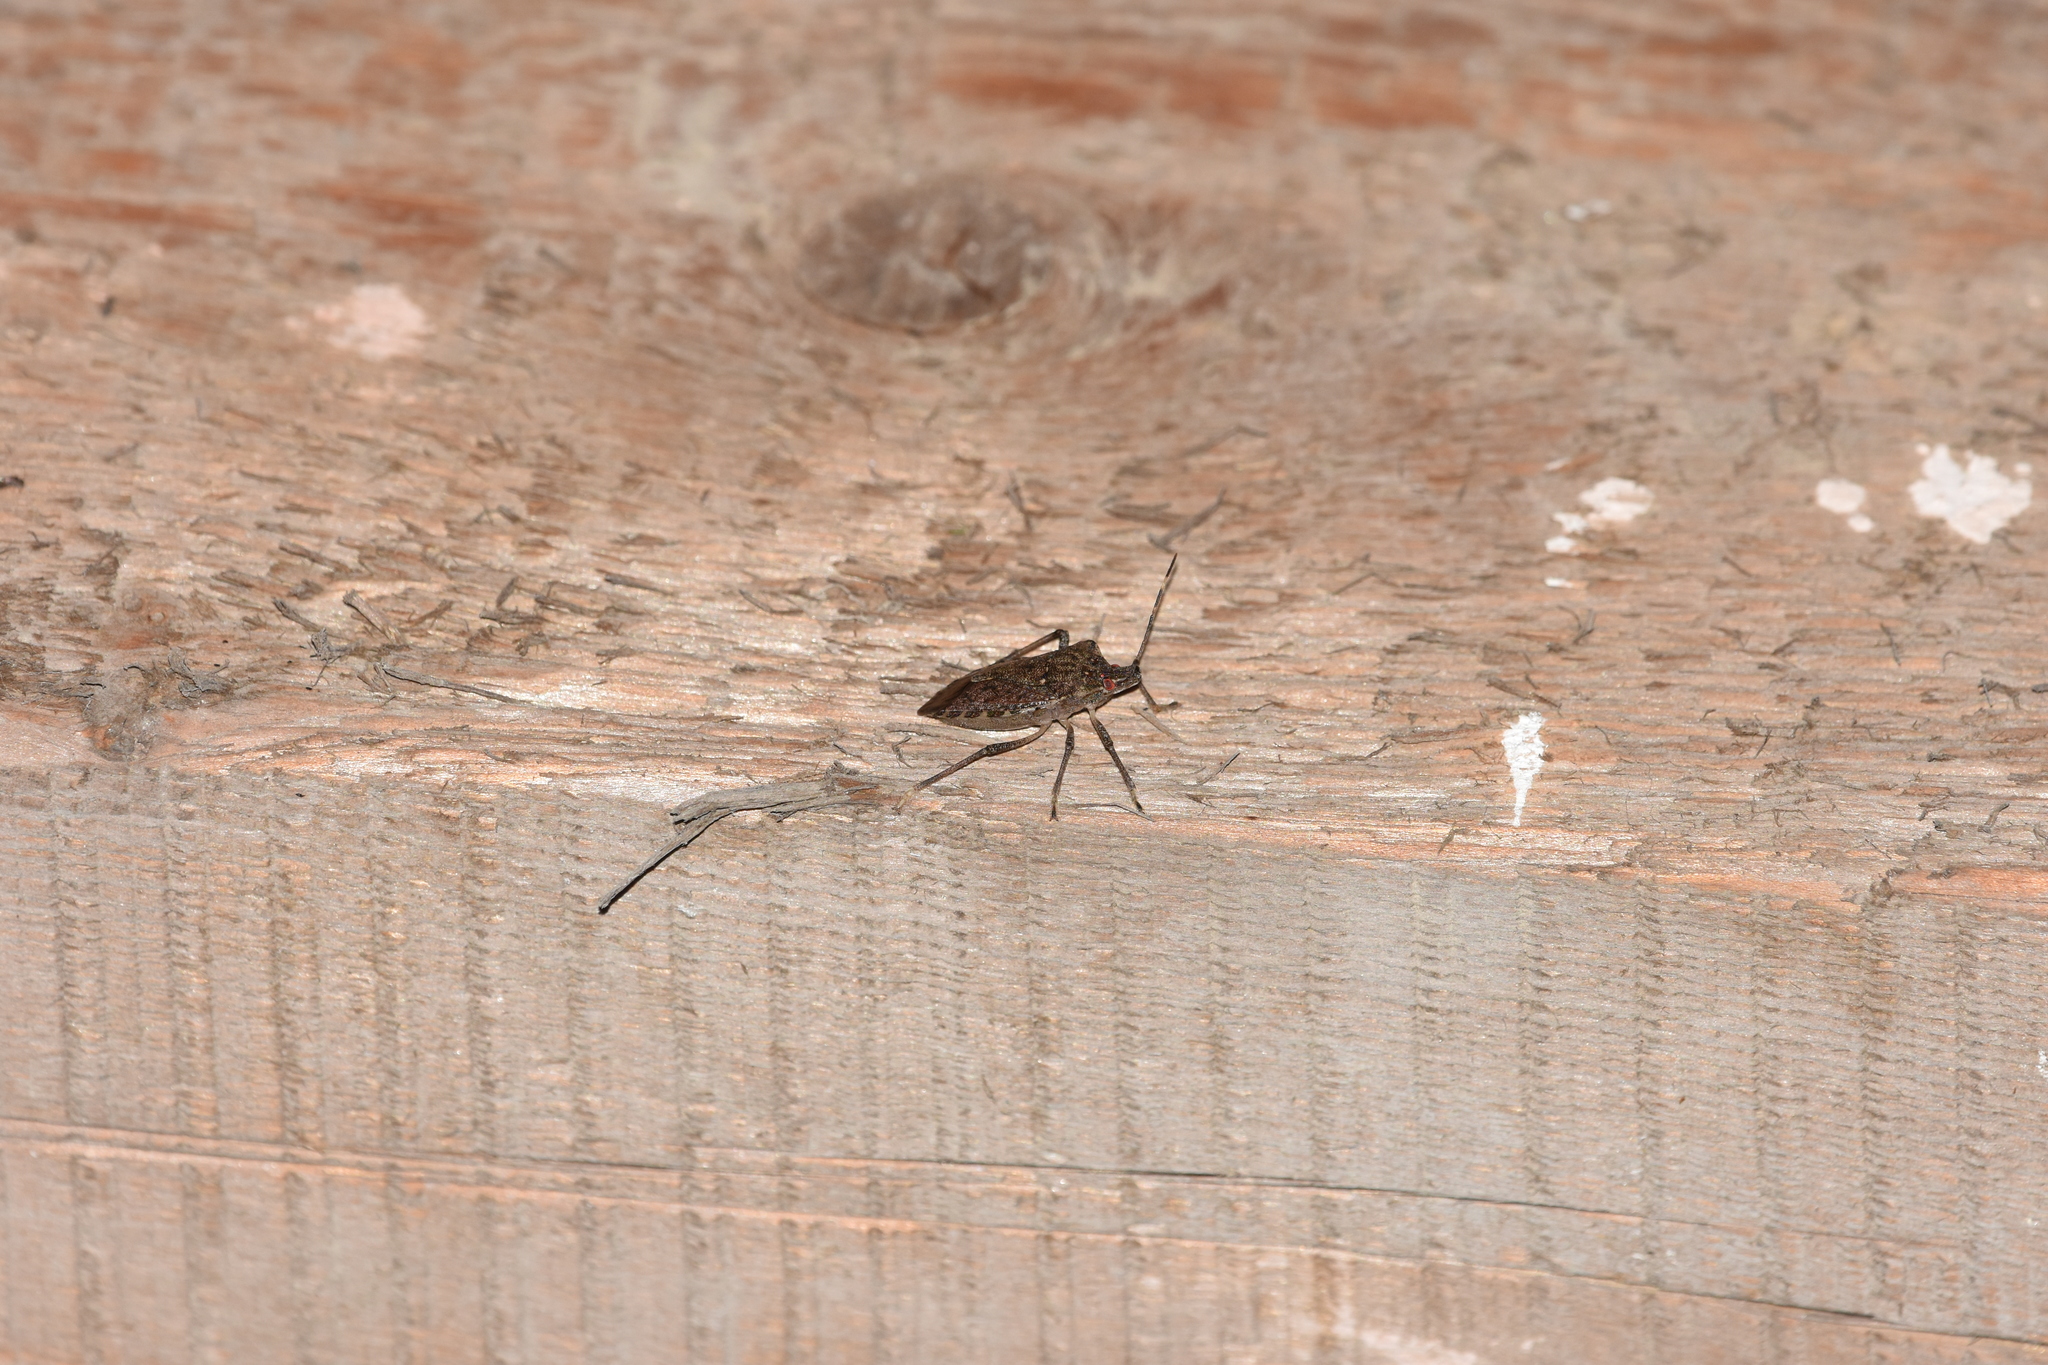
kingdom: Animalia
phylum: Arthropoda
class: Insecta
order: Hemiptera
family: Pentatomidae
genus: Halyomorpha
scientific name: Halyomorpha halys
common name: Brown marmorated stink bug
